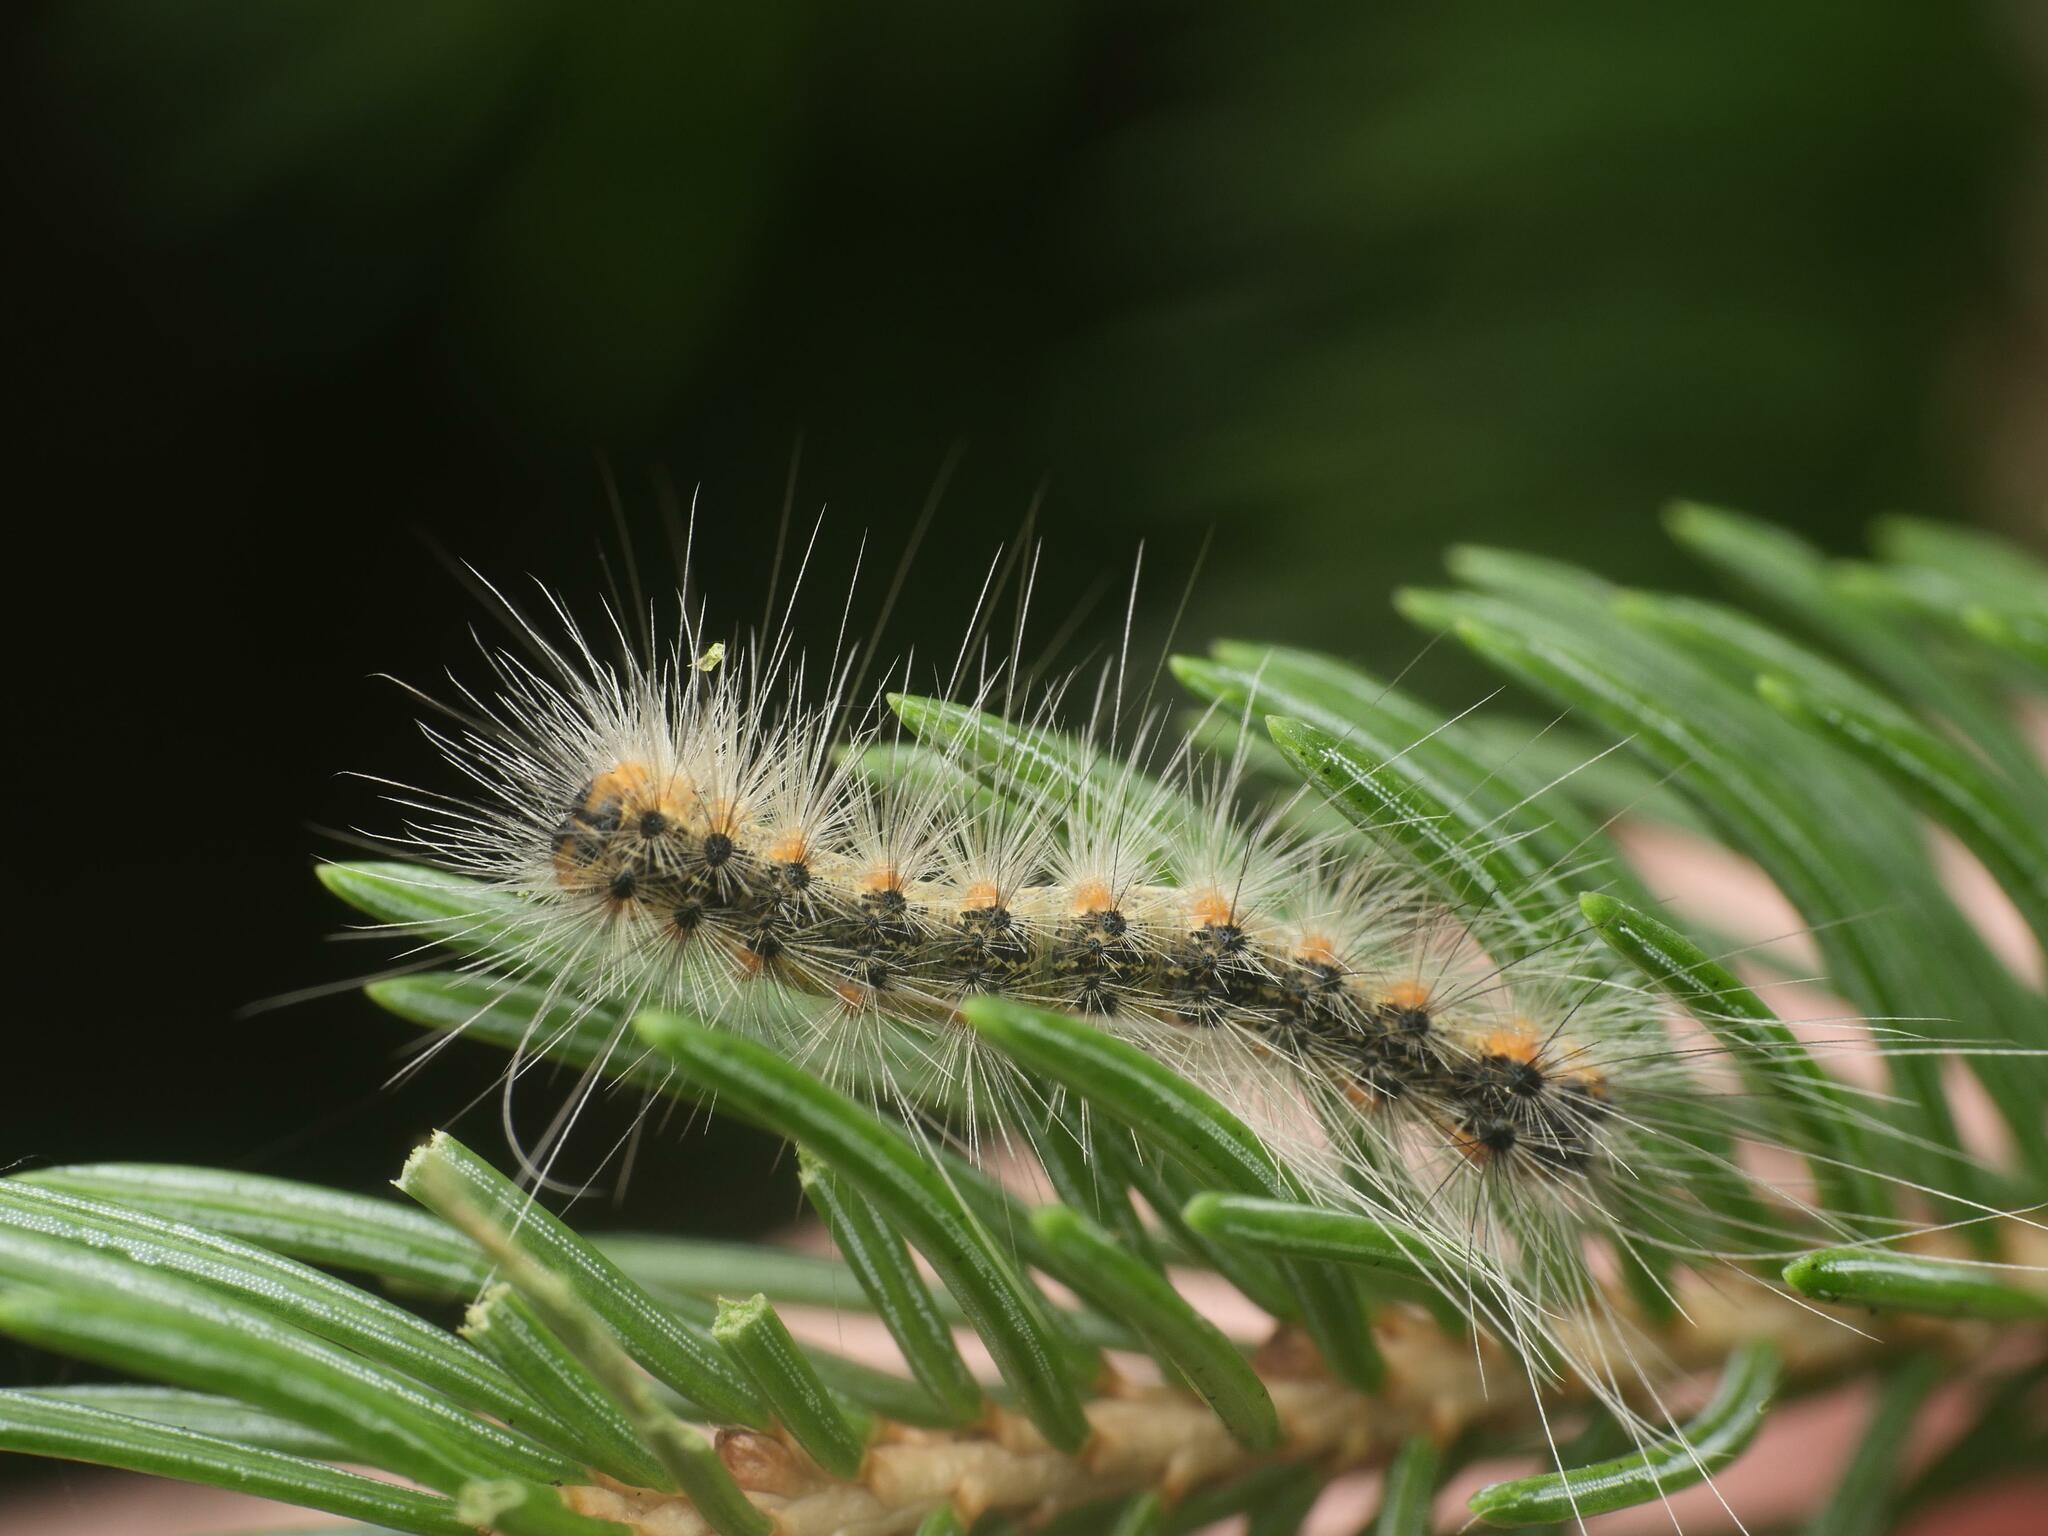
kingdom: Animalia
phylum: Arthropoda
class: Insecta
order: Lepidoptera
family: Erebidae
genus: Hyphantria
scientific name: Hyphantria cunea
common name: American white moth
